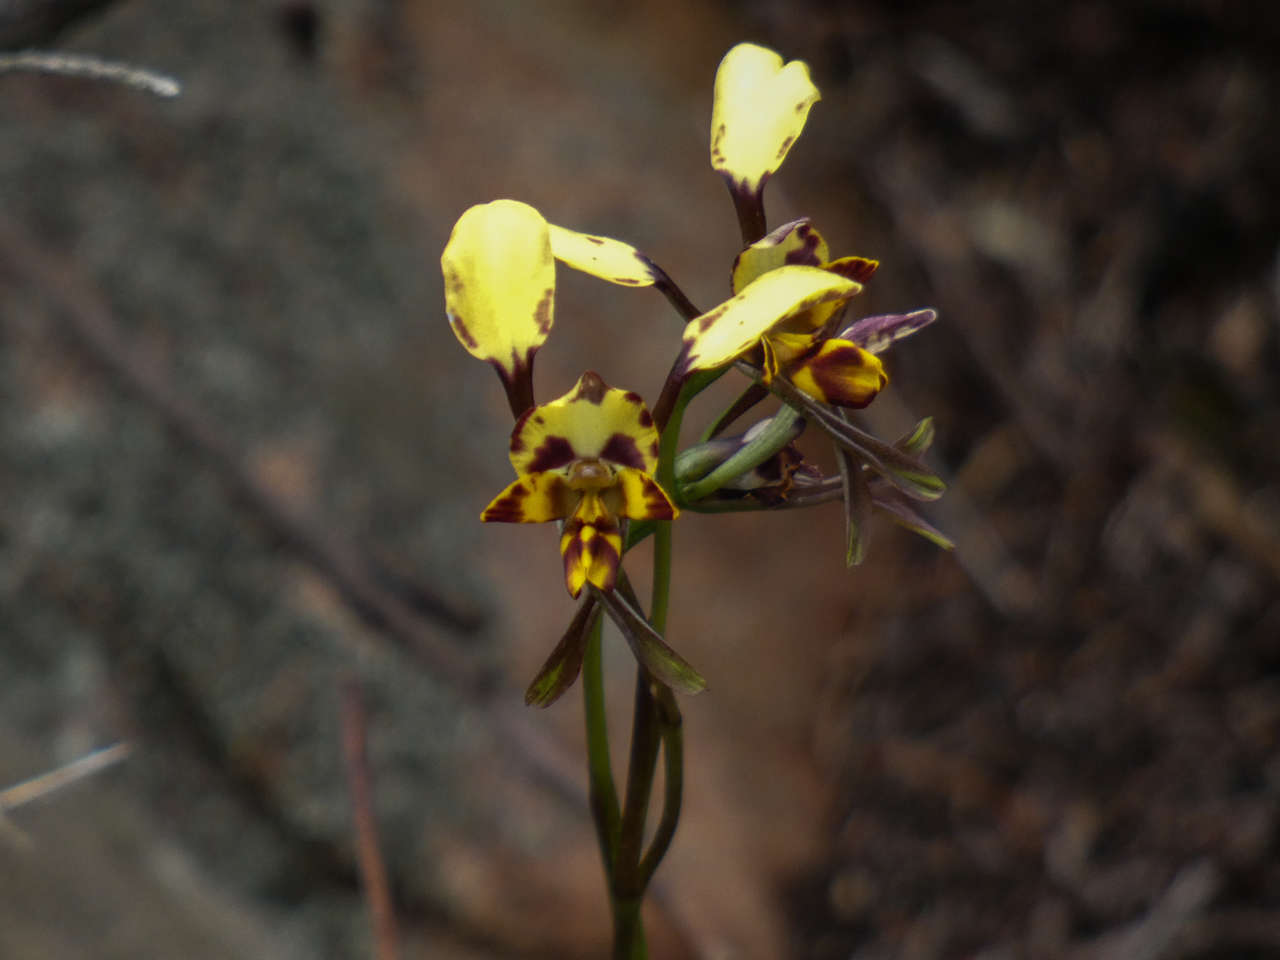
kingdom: Plantae
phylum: Tracheophyta
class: Liliopsida
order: Asparagales
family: Orchidaceae
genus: Diuris
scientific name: Diuris pardina
